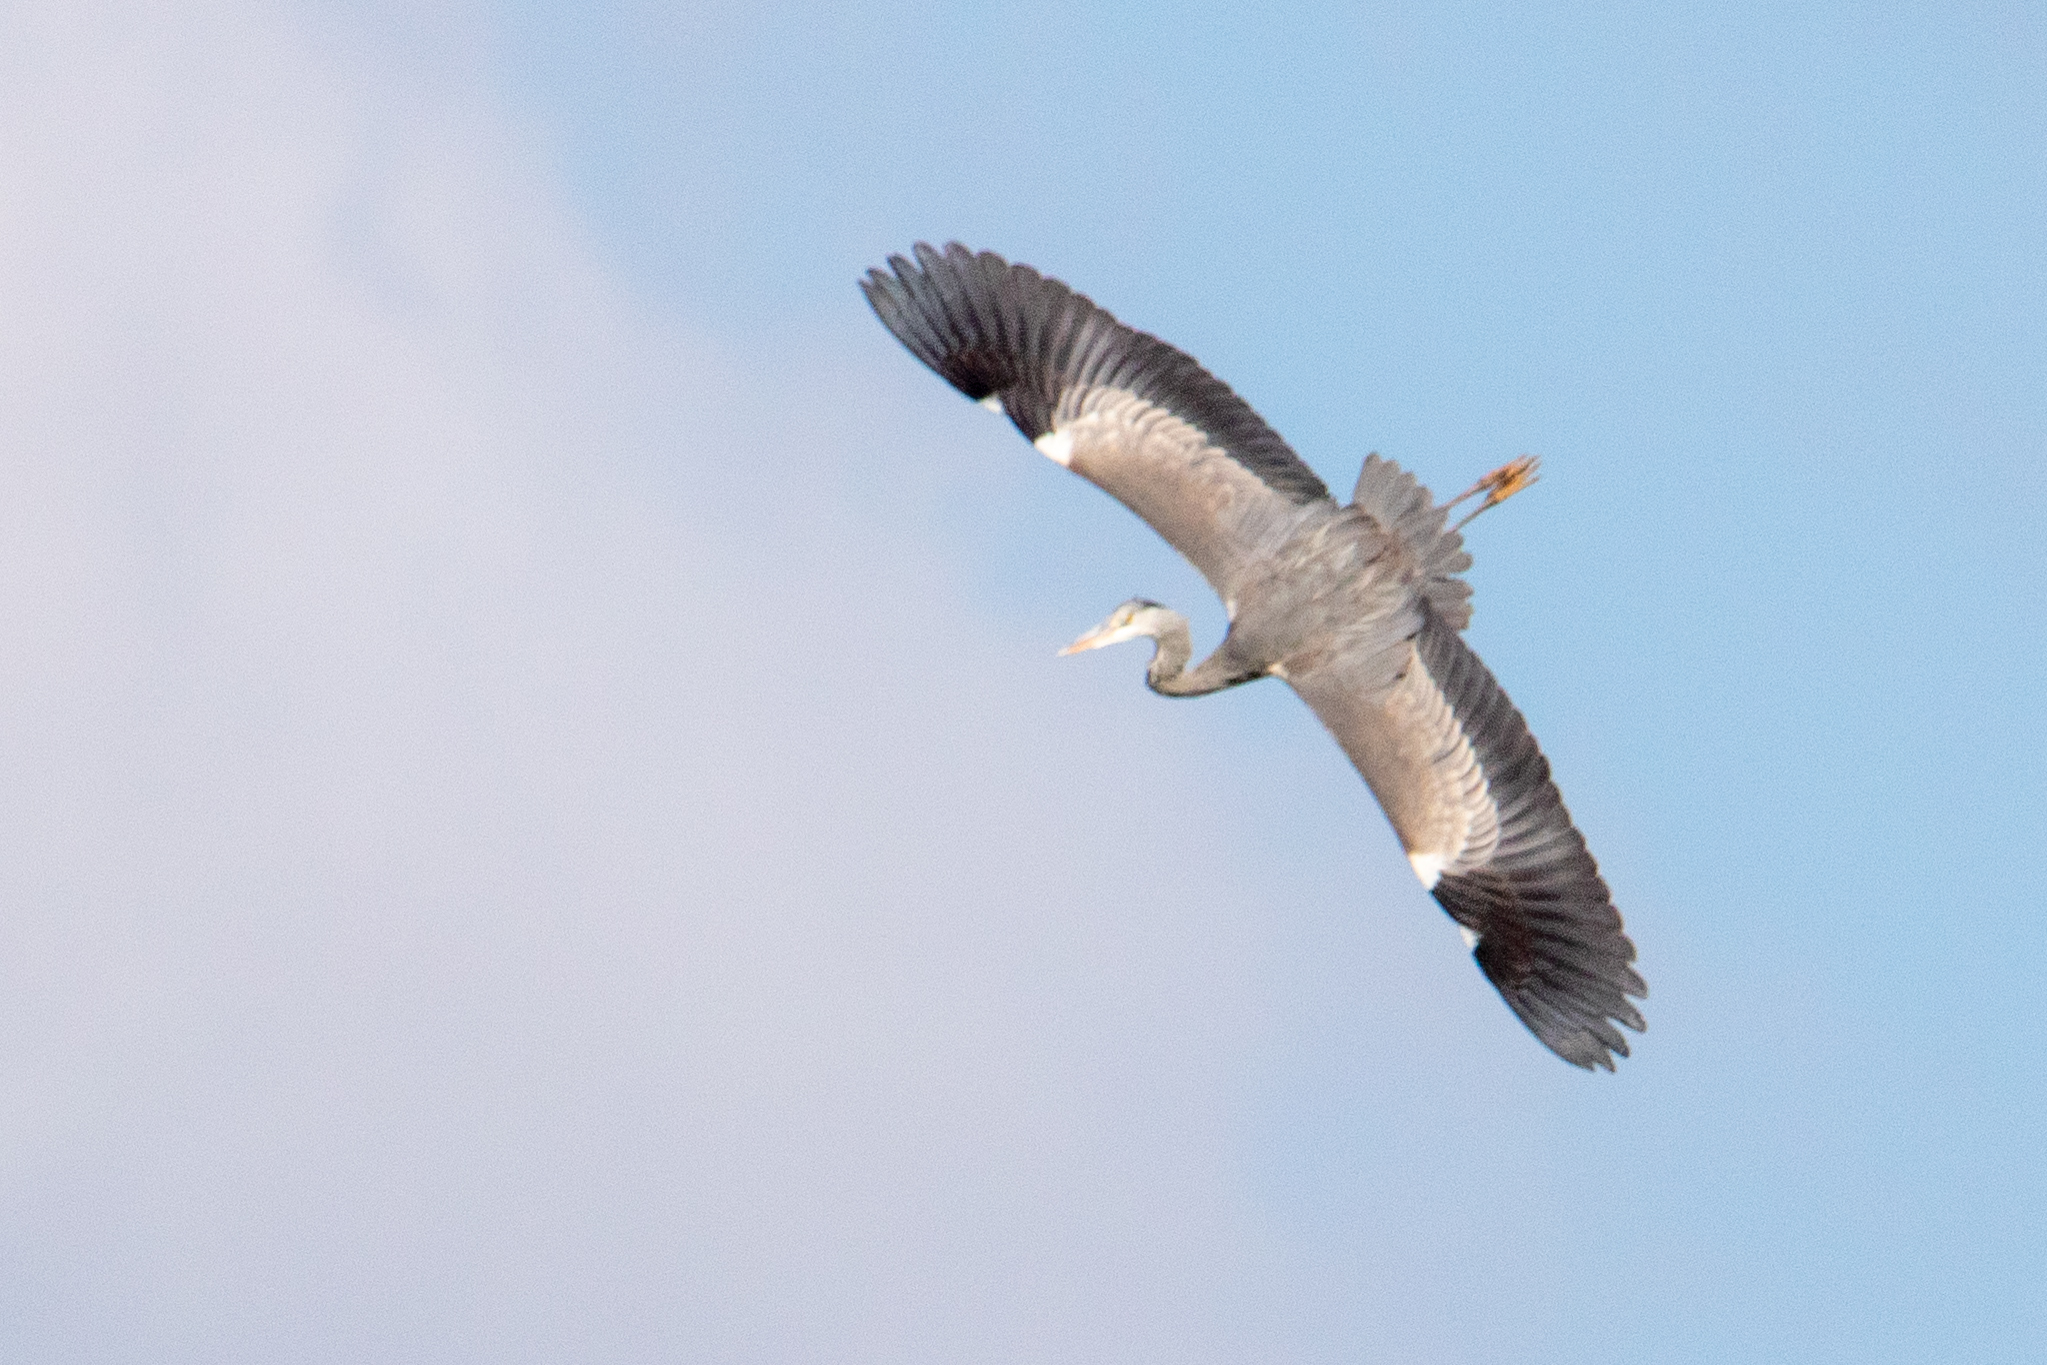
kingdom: Animalia
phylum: Chordata
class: Aves
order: Pelecaniformes
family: Ardeidae
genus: Ardea
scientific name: Ardea cinerea
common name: Grey heron
